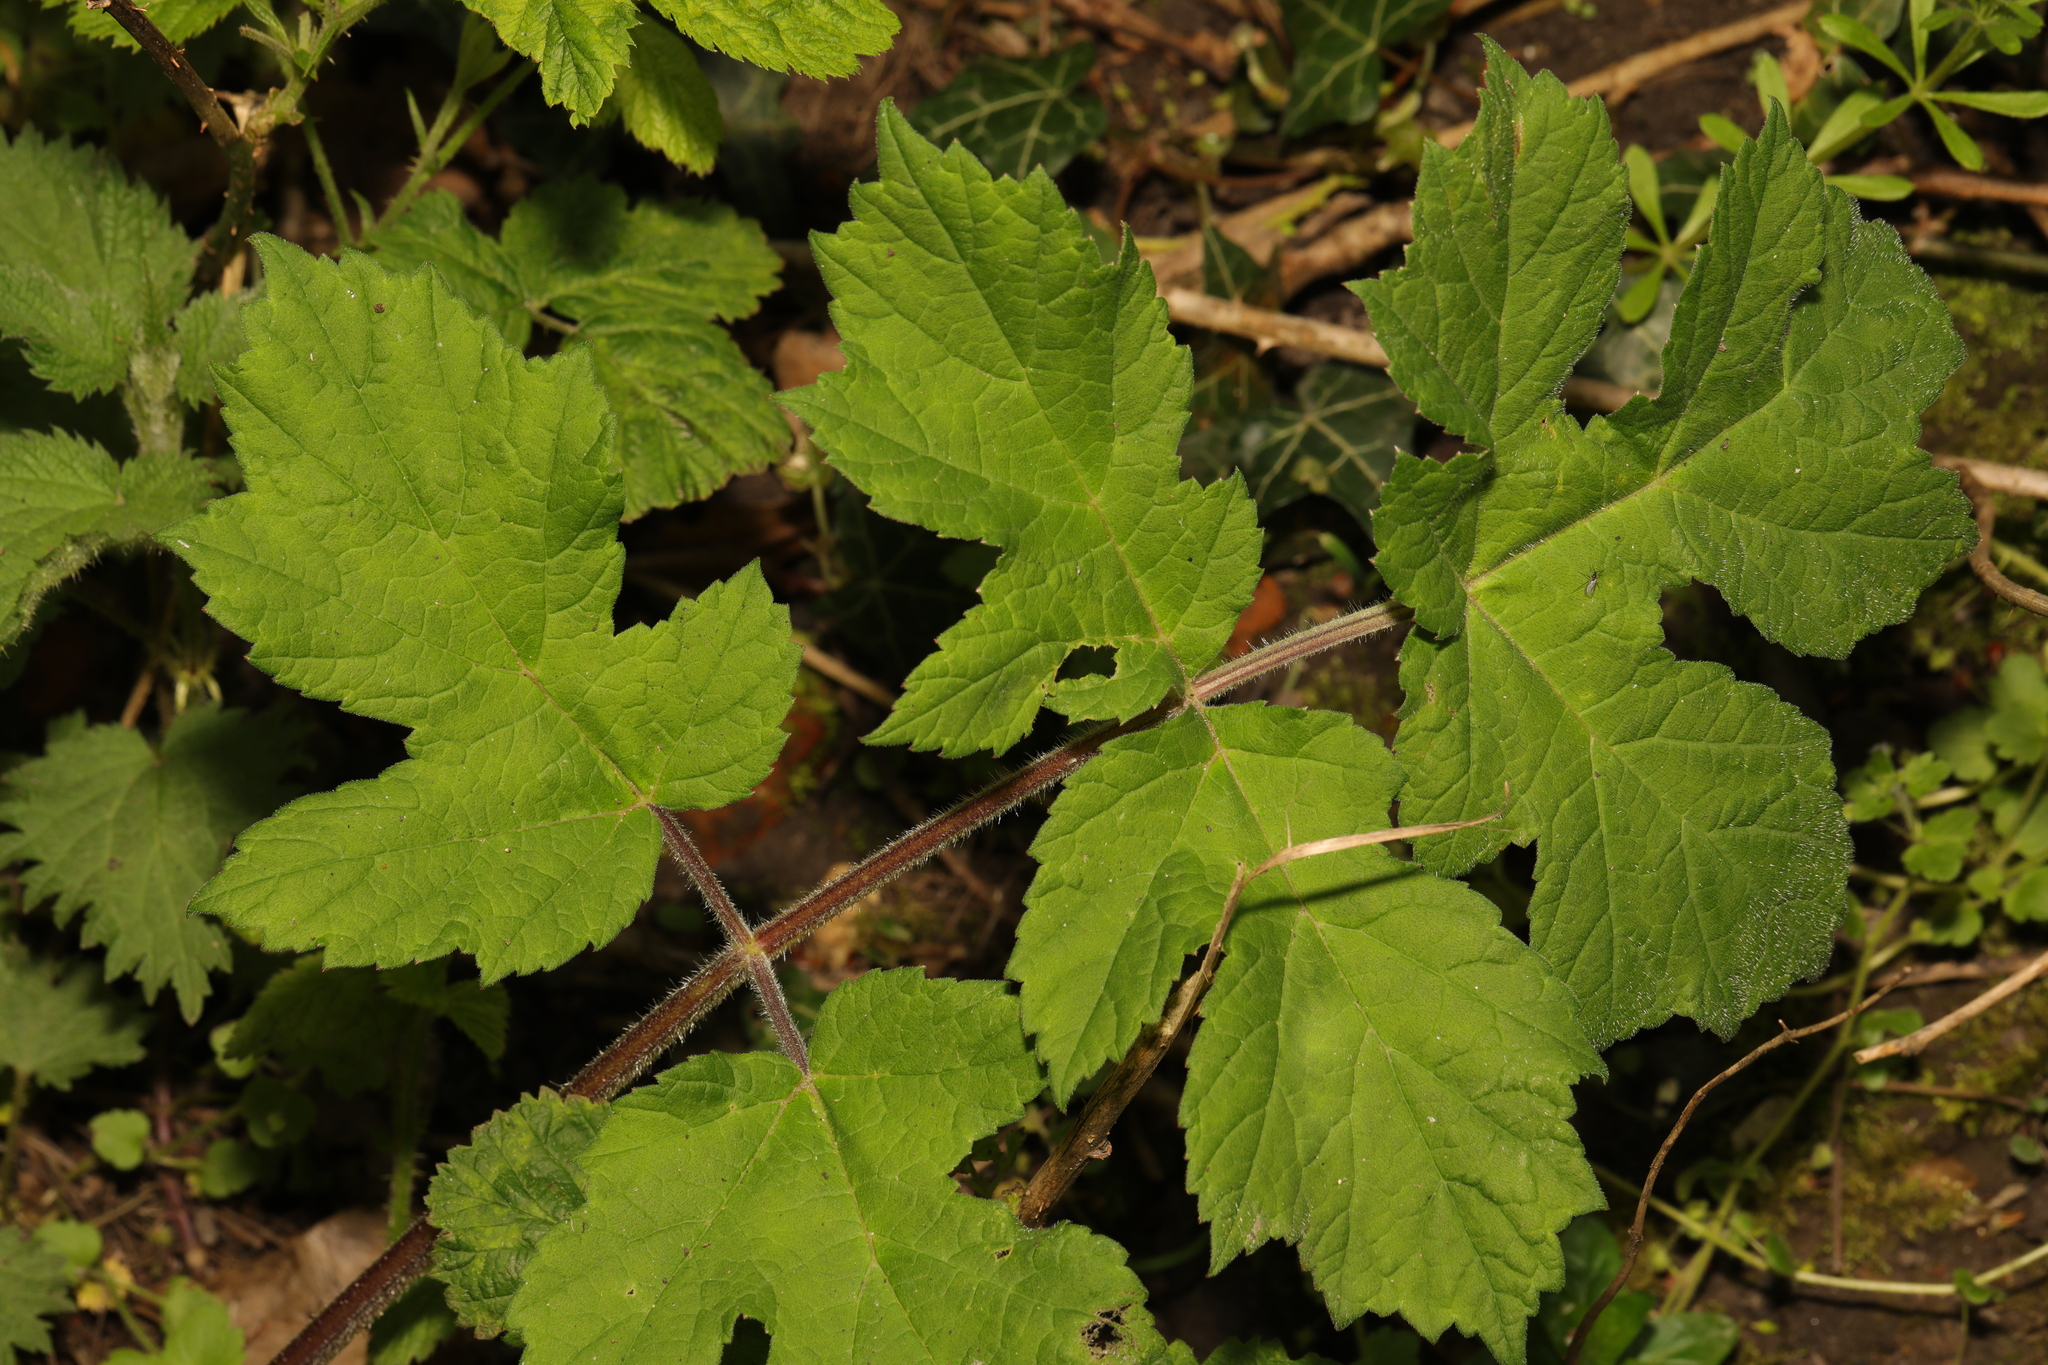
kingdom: Plantae
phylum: Tracheophyta
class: Magnoliopsida
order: Apiales
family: Apiaceae
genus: Heracleum
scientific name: Heracleum sphondylium
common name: Hogweed
